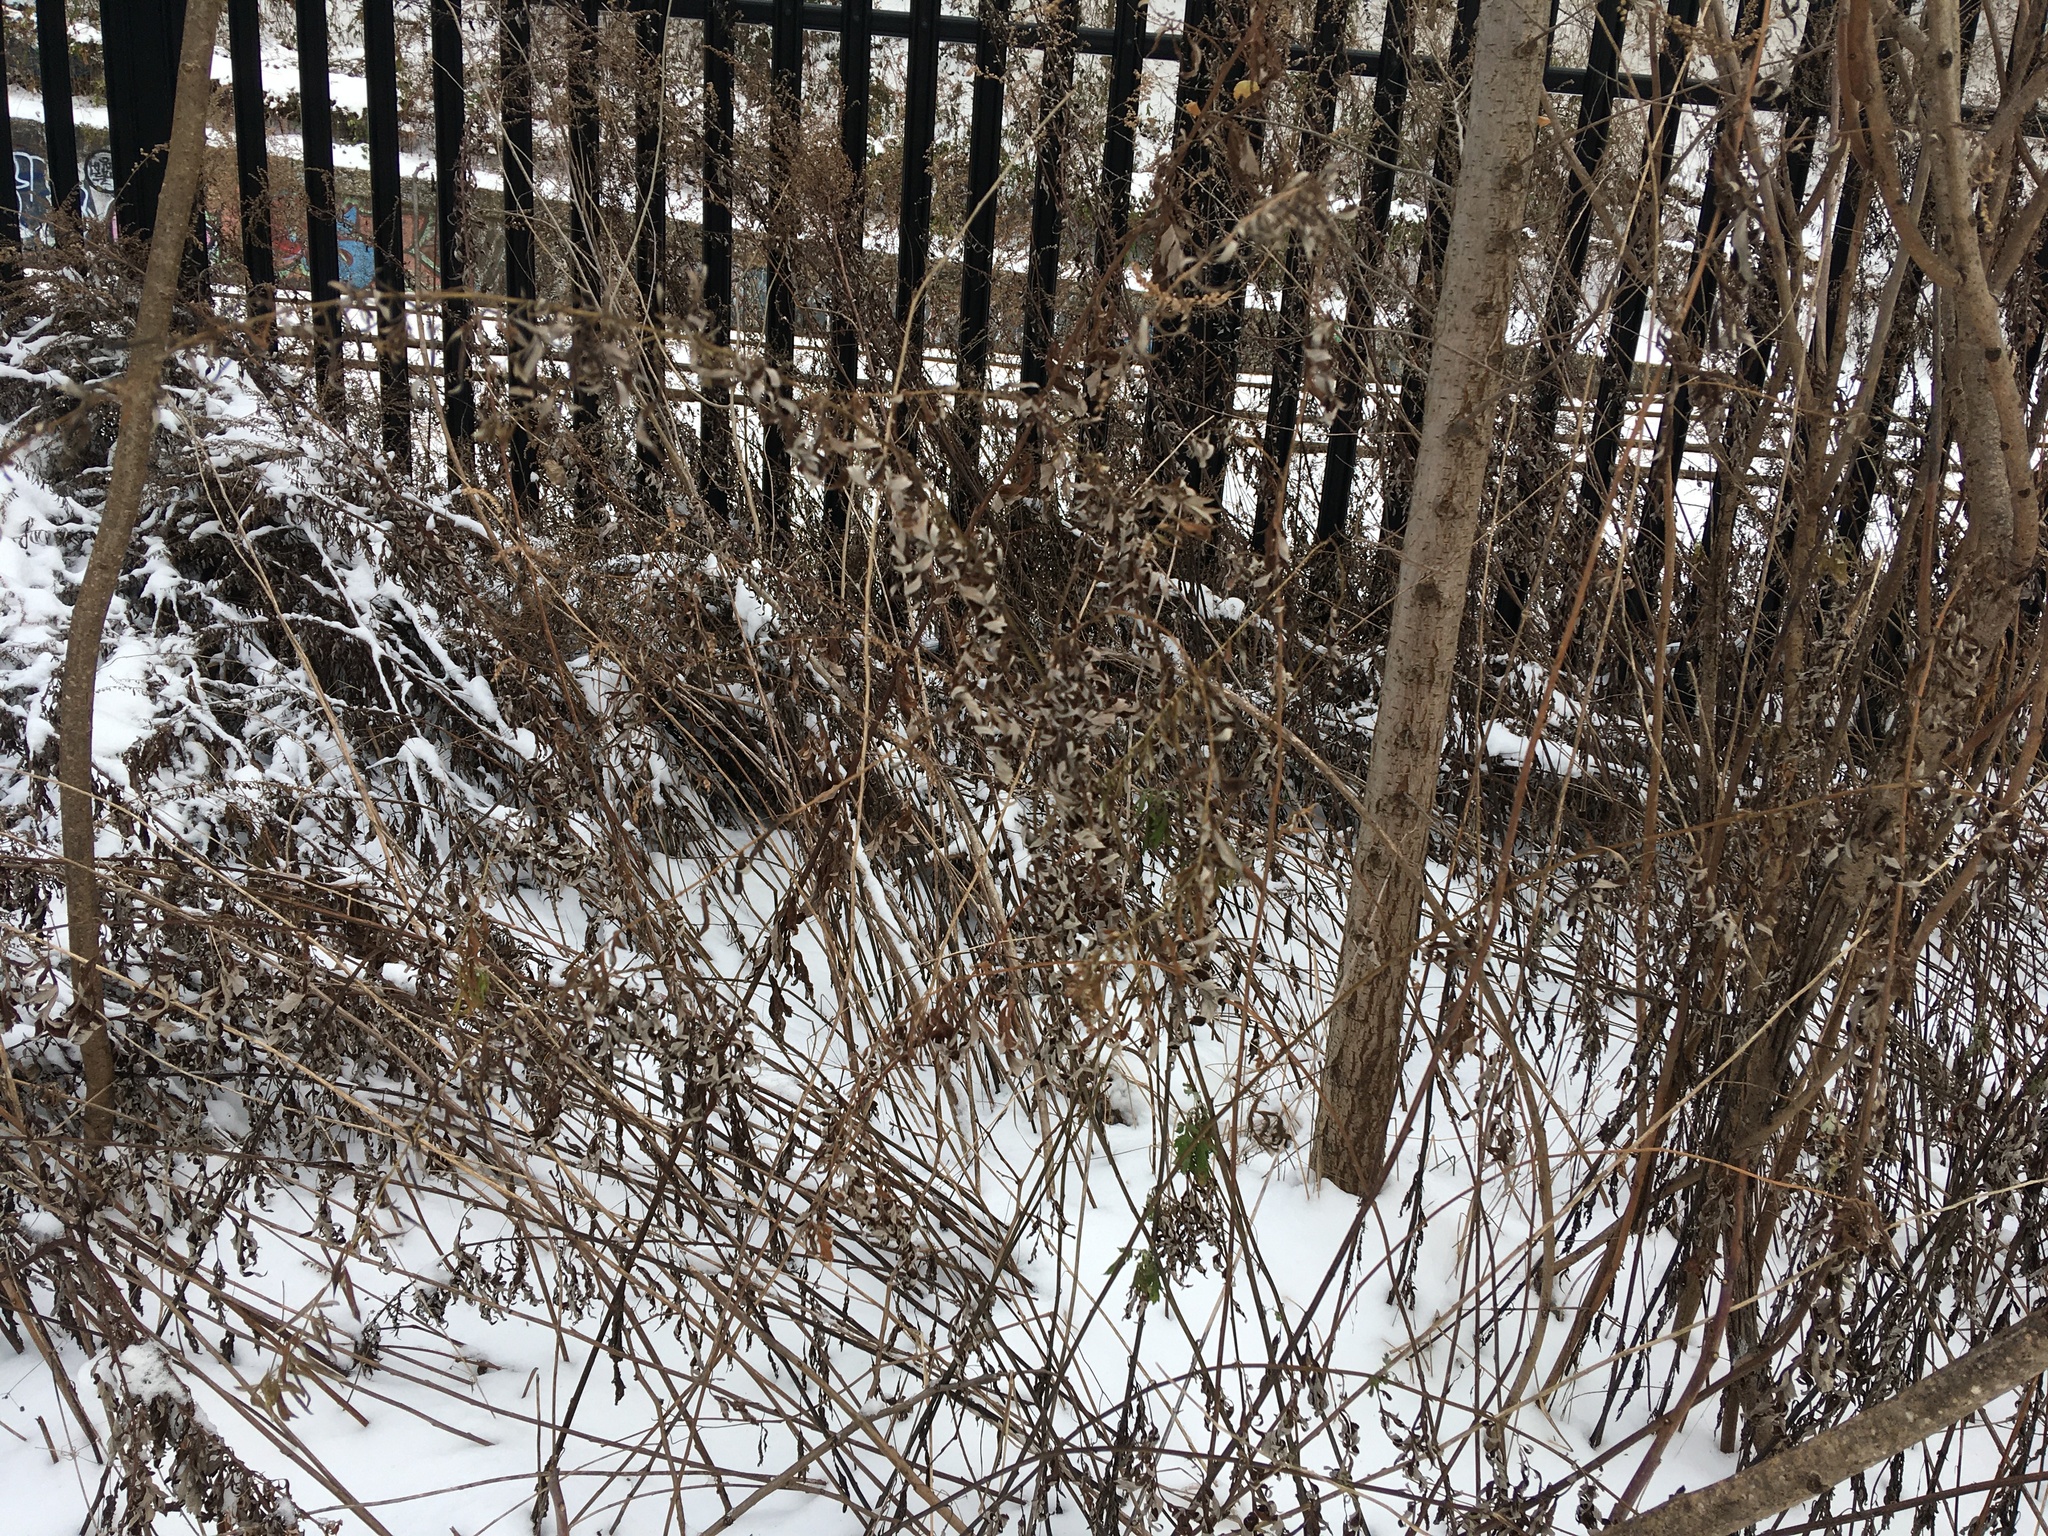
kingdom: Plantae
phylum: Tracheophyta
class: Magnoliopsida
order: Asterales
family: Asteraceae
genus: Artemisia
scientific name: Artemisia vulgaris
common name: Mugwort
